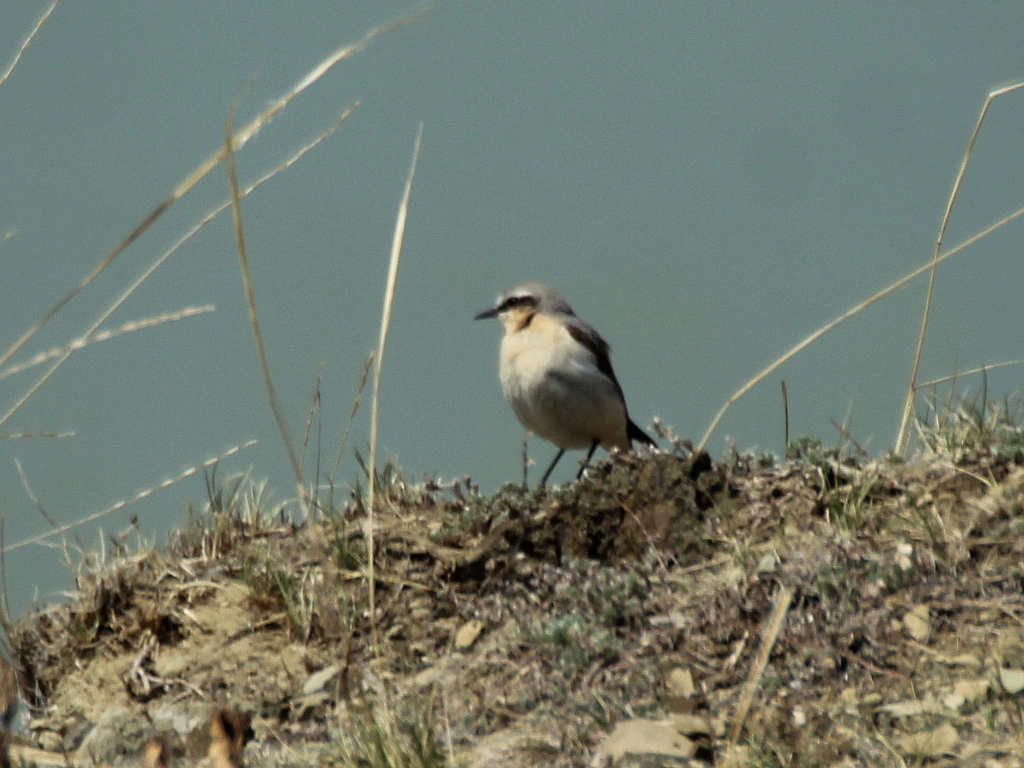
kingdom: Animalia
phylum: Chordata
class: Aves
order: Passeriformes
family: Muscicapidae
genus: Oenanthe
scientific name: Oenanthe oenanthe
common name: Northern wheatear
